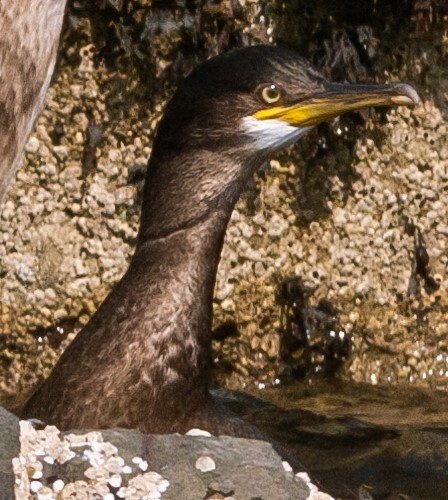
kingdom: Animalia
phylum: Chordata
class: Aves
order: Suliformes
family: Phalacrocoracidae
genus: Phalacrocorax
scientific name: Phalacrocorax aristotelis
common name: European shag
